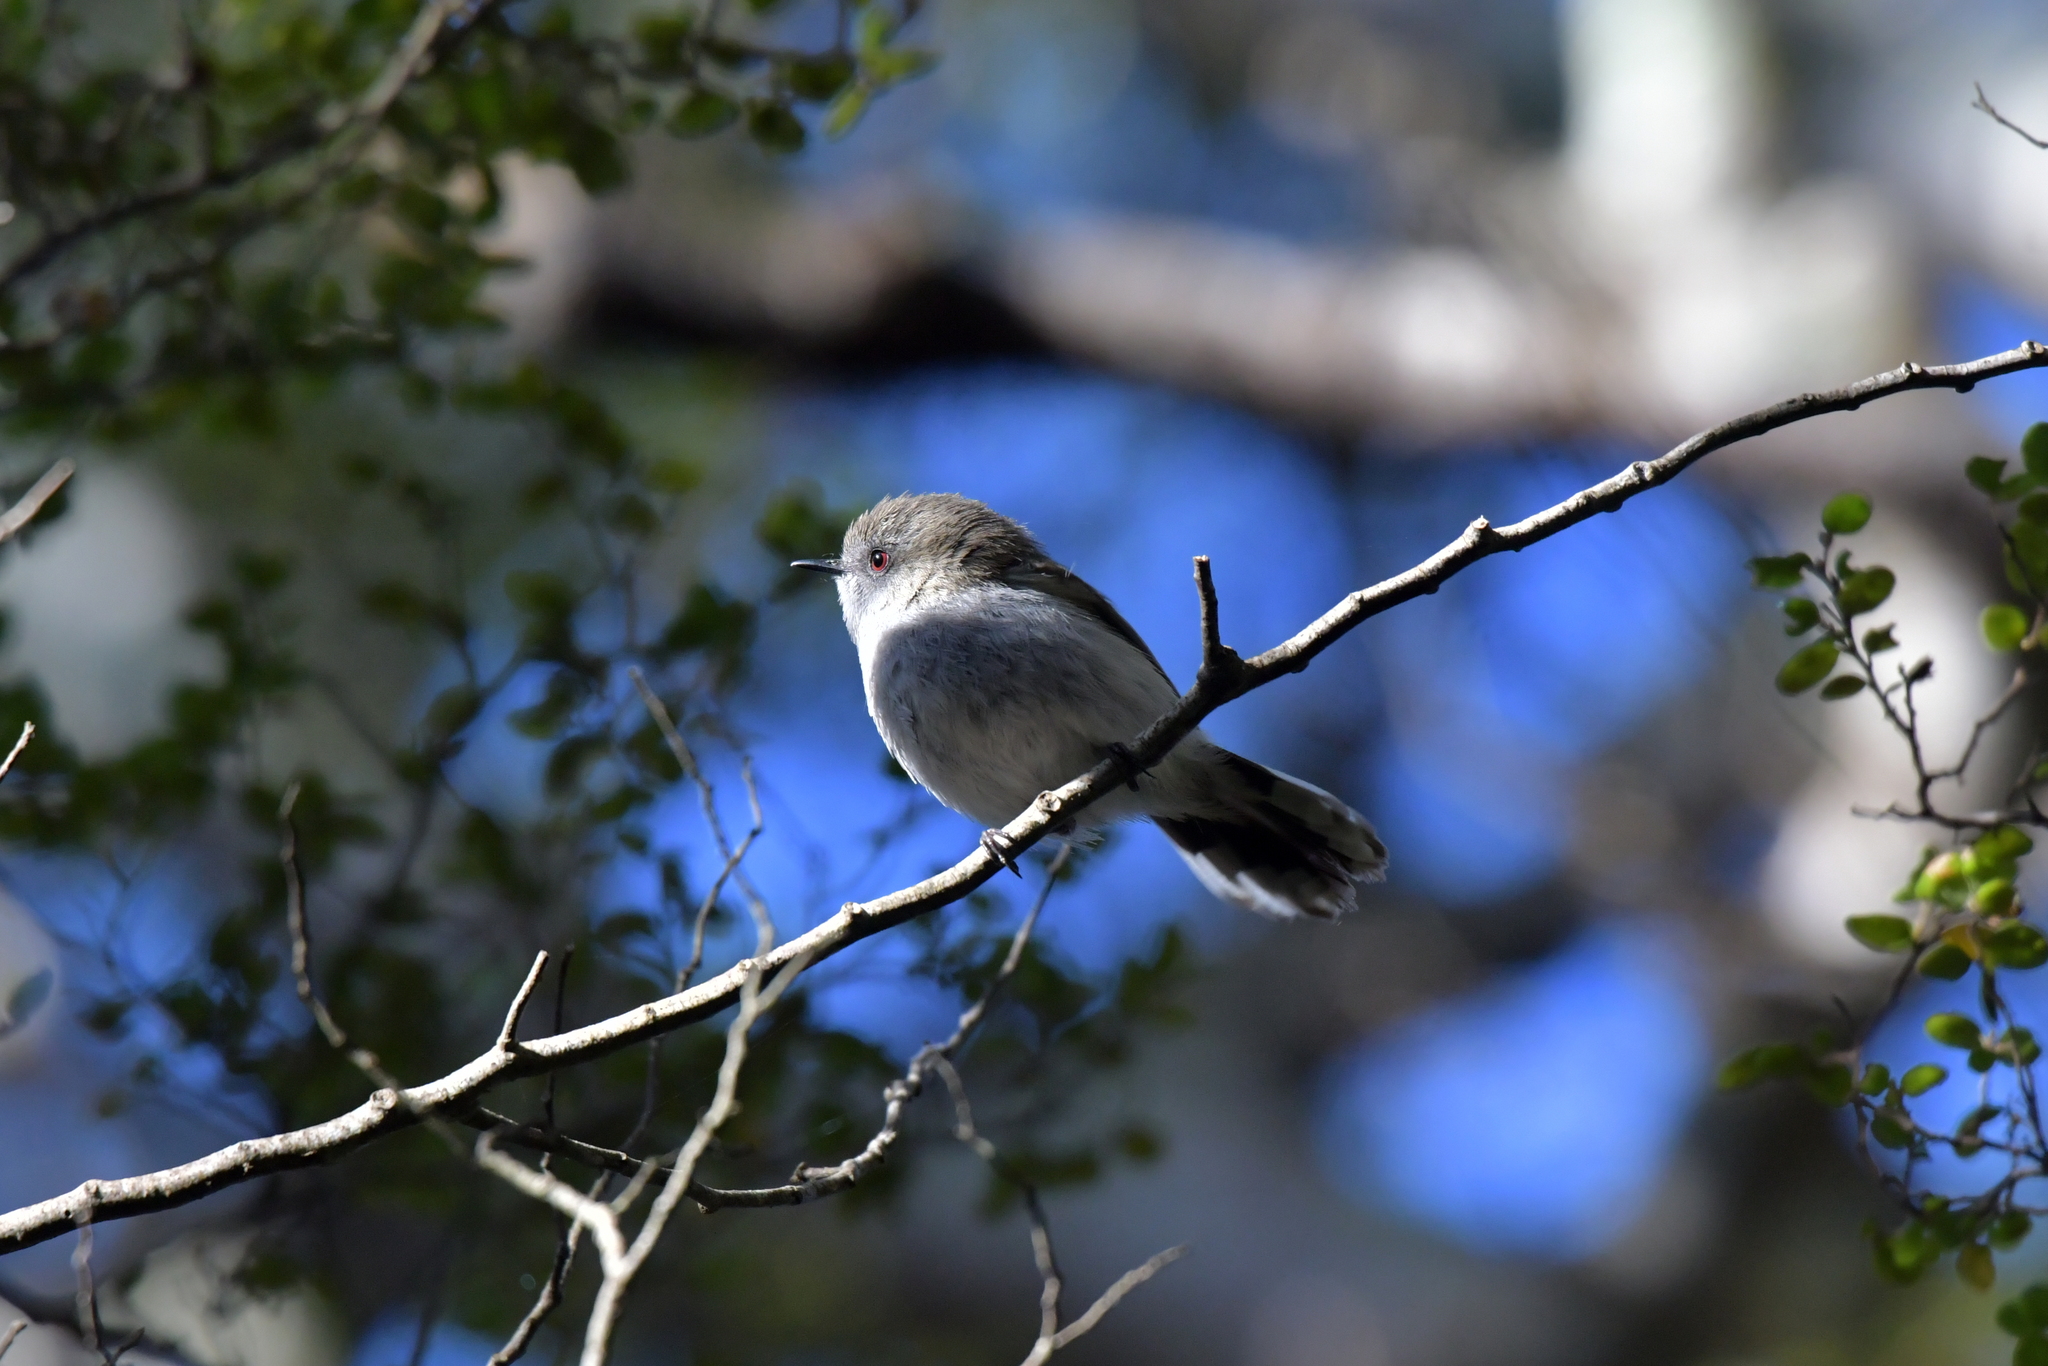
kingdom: Animalia
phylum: Chordata
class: Aves
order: Passeriformes
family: Acanthizidae
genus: Gerygone
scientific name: Gerygone igata
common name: Grey gerygone
